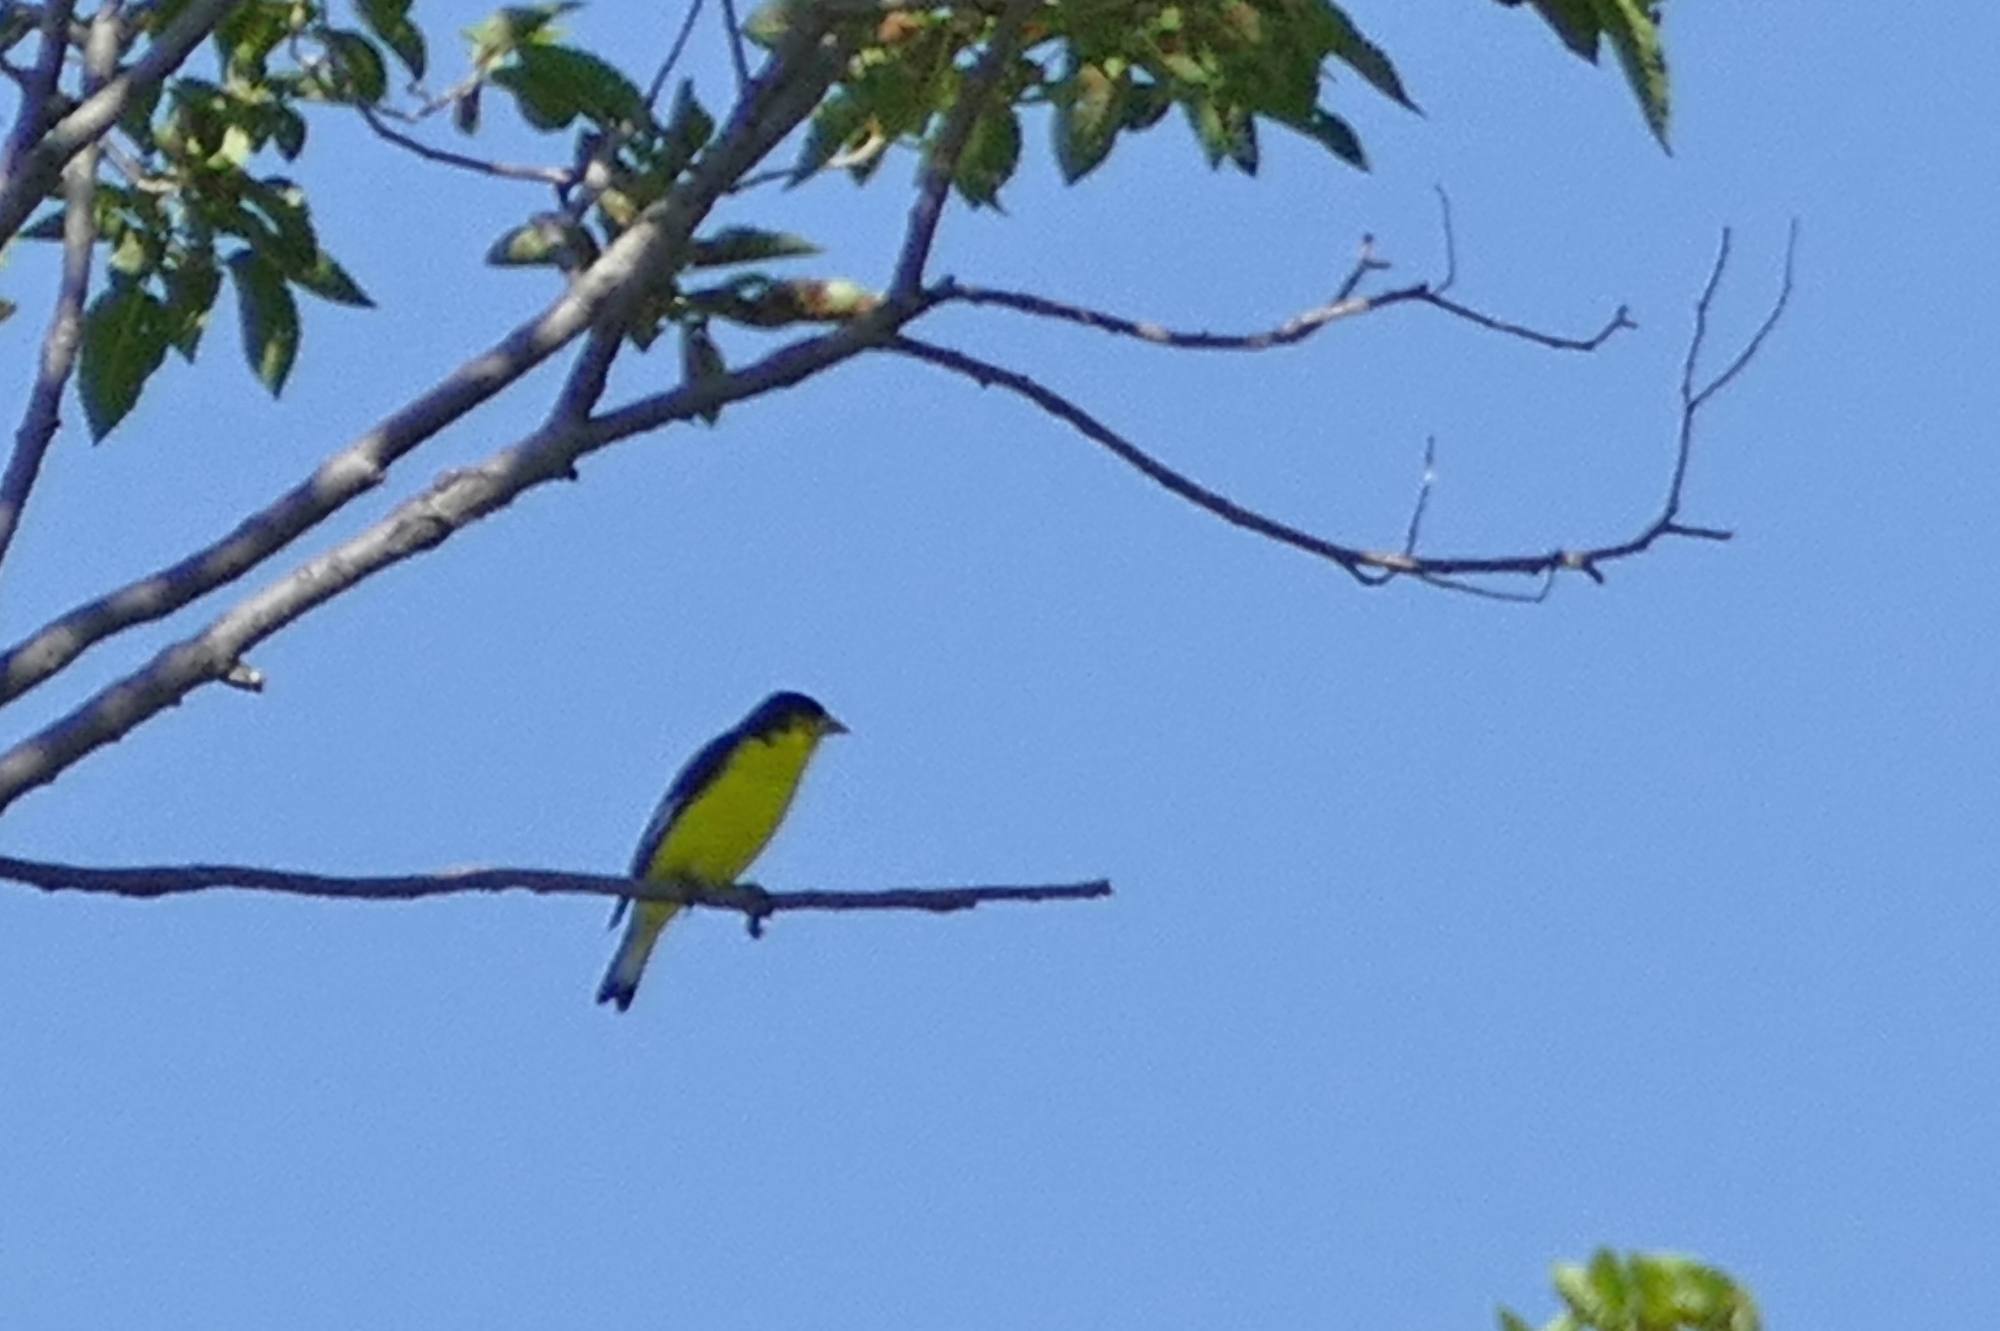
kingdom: Animalia
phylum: Chordata
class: Aves
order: Passeriformes
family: Fringillidae
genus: Spinus
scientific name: Spinus psaltria
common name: Lesser goldfinch
